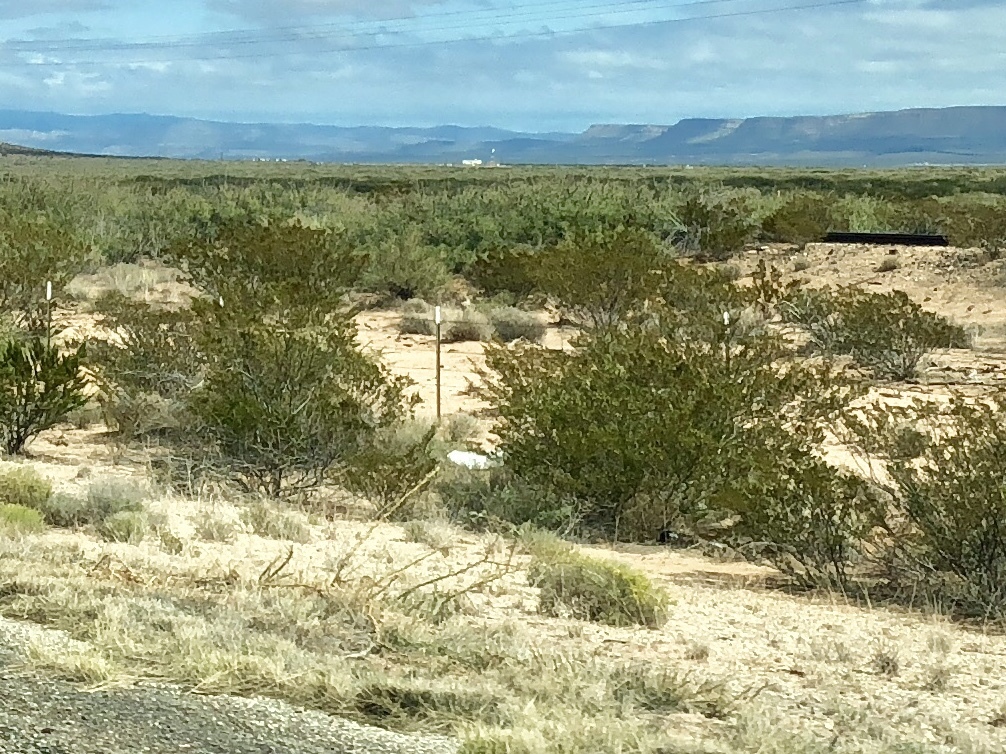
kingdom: Plantae
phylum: Tracheophyta
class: Magnoliopsida
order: Zygophyllales
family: Zygophyllaceae
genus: Larrea
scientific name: Larrea tridentata
